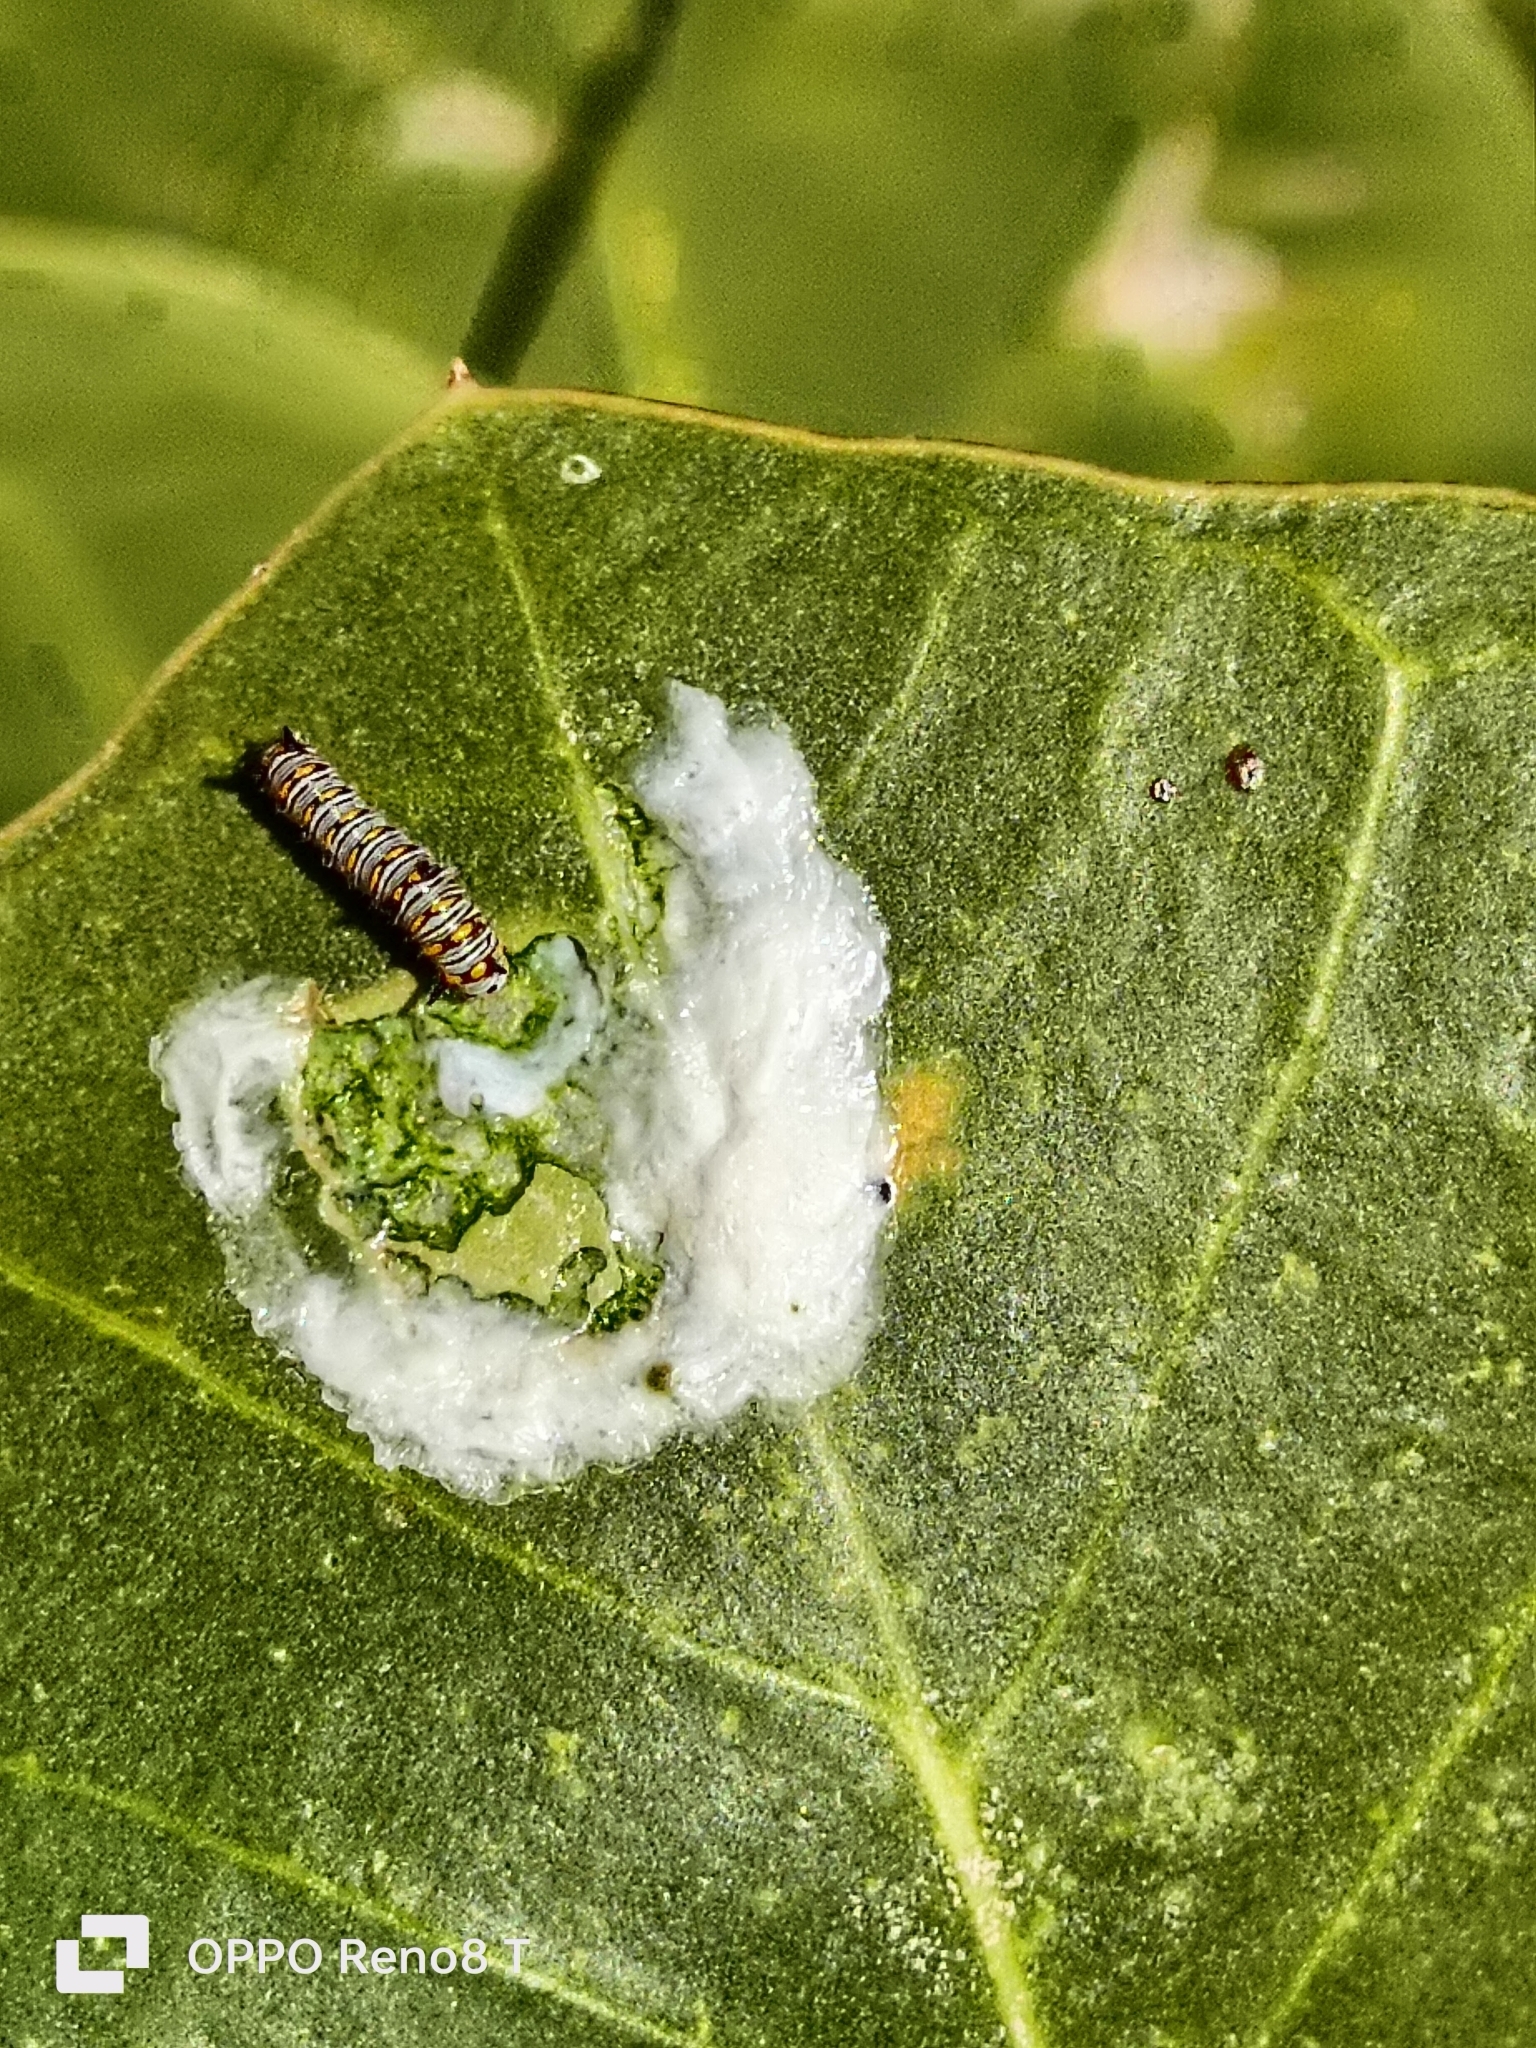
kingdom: Animalia
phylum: Arthropoda
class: Insecta
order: Lepidoptera
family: Nymphalidae
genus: Danaus
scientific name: Danaus chrysippus
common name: Plain tiger
